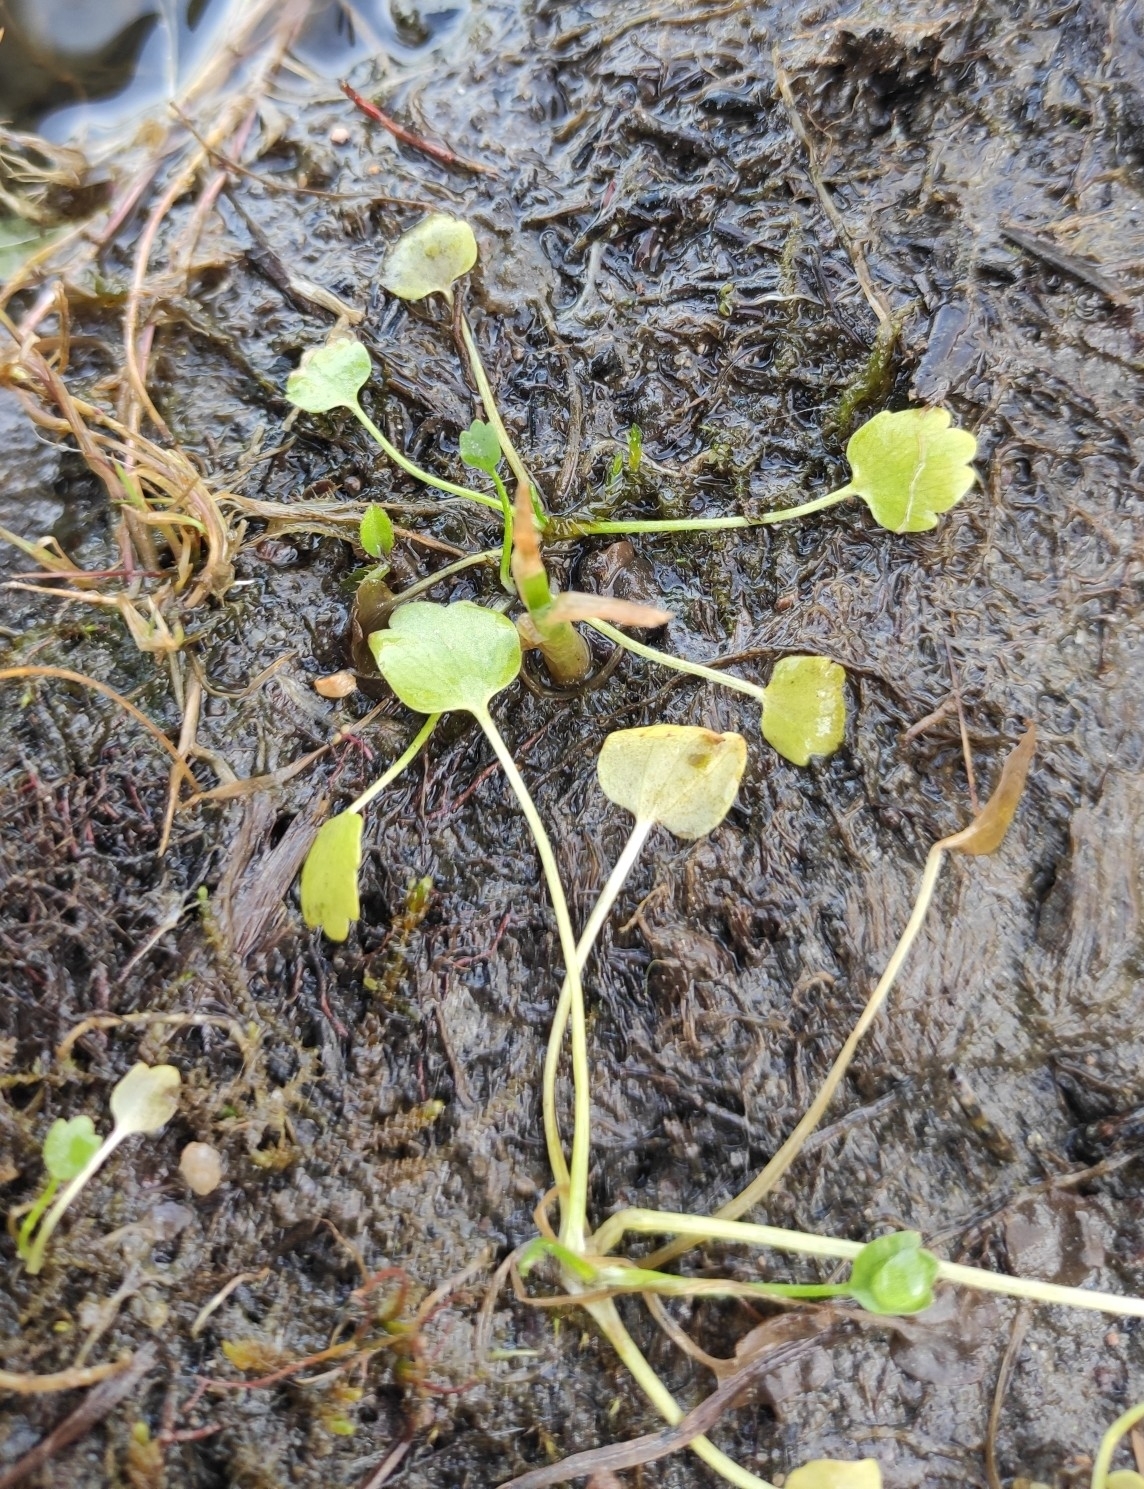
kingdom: Plantae
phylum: Tracheophyta
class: Magnoliopsida
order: Ranunculales
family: Ranunculaceae
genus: Halerpestes
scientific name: Halerpestes sarmentosus
